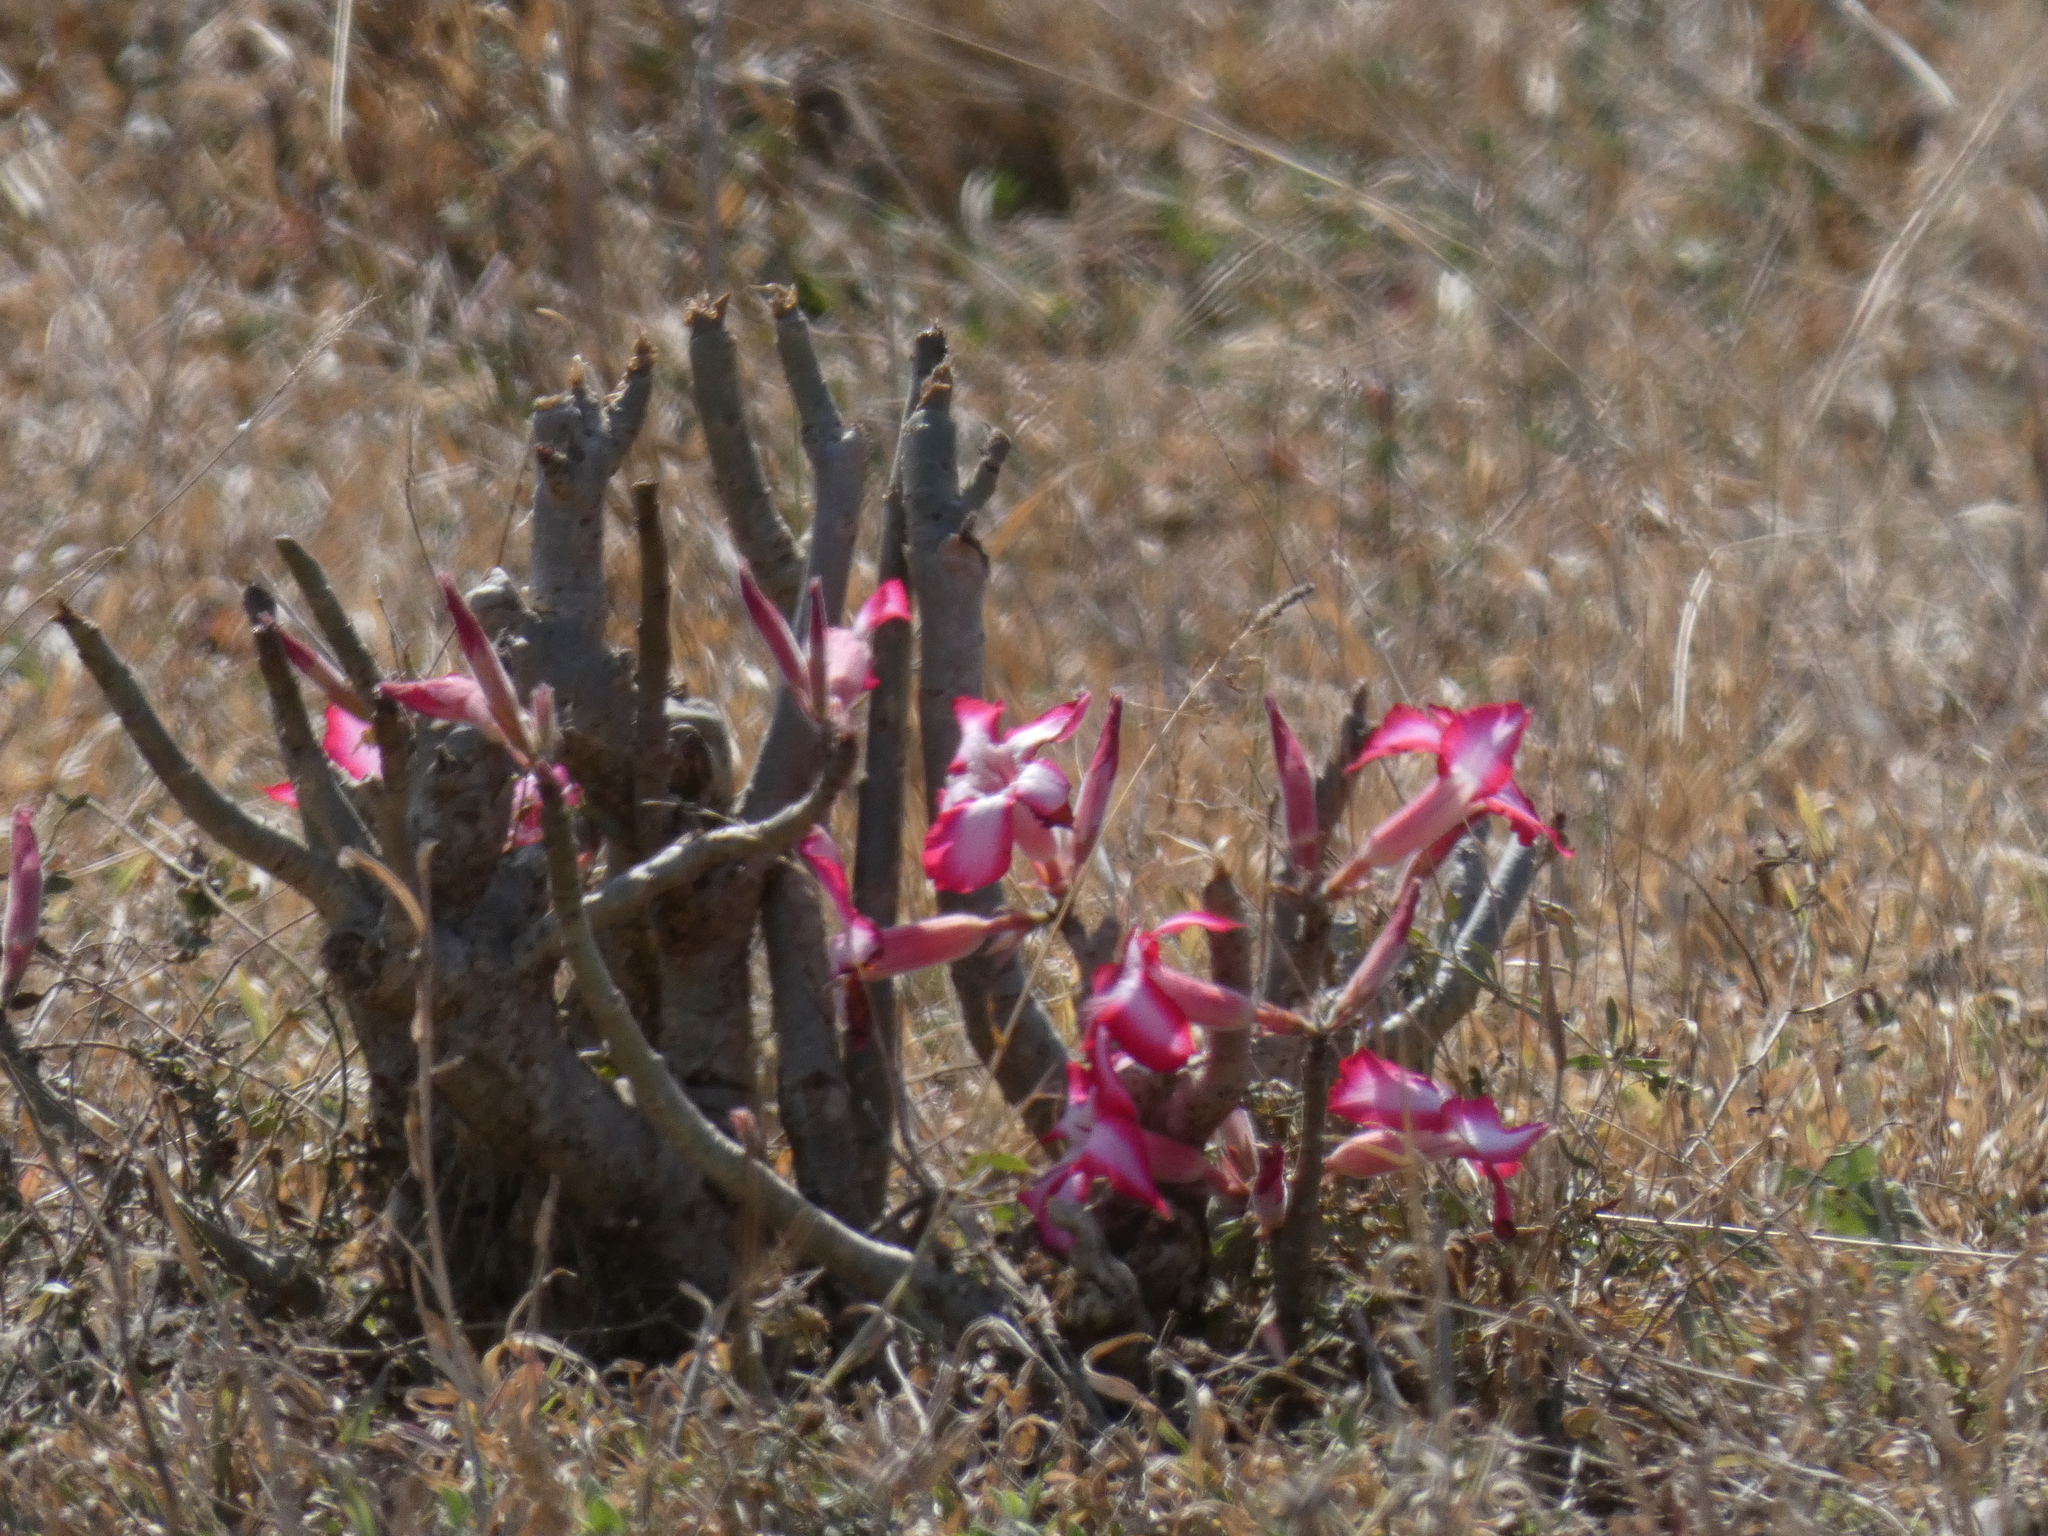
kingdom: Plantae
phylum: Tracheophyta
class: Magnoliopsida
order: Gentianales
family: Apocynaceae
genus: Adenium
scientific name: Adenium obesum
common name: Desert-rose
